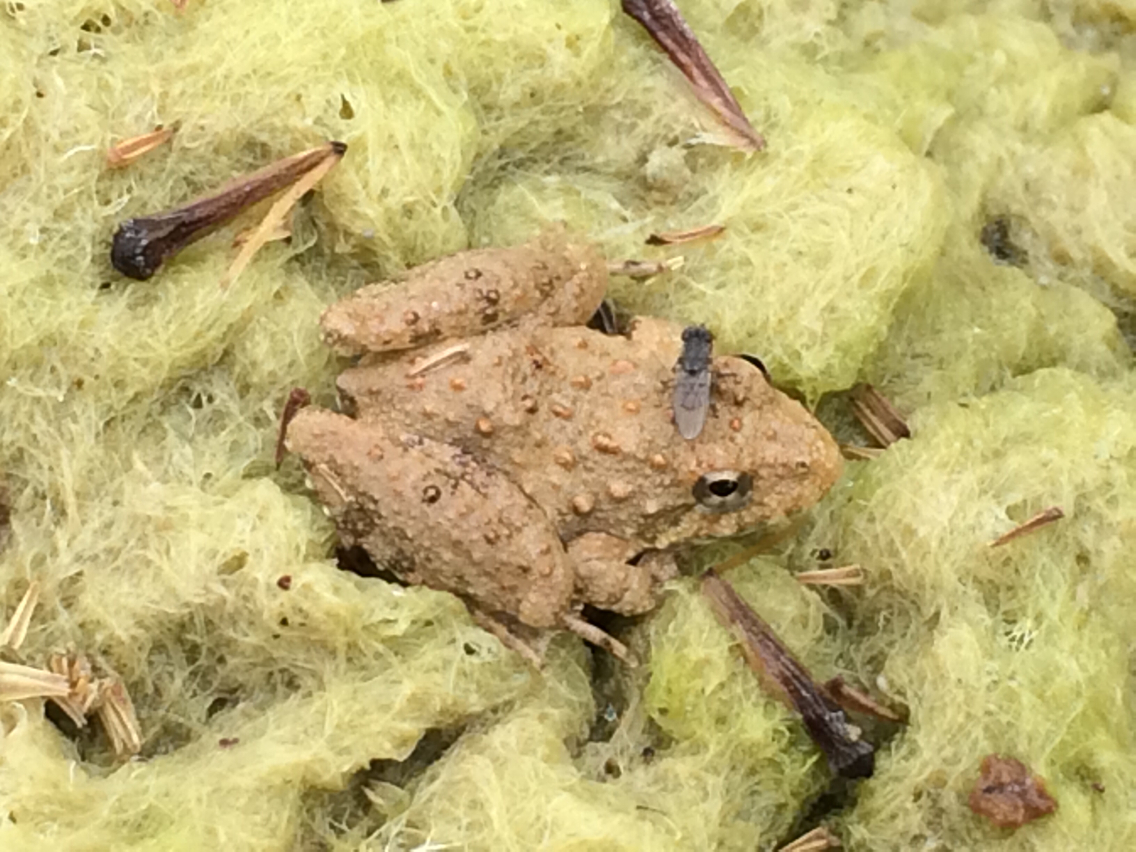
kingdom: Animalia
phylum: Chordata
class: Amphibia
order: Anura
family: Hylidae
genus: Acris
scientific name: Acris blanchardi
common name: Blanchard's cricket frog
